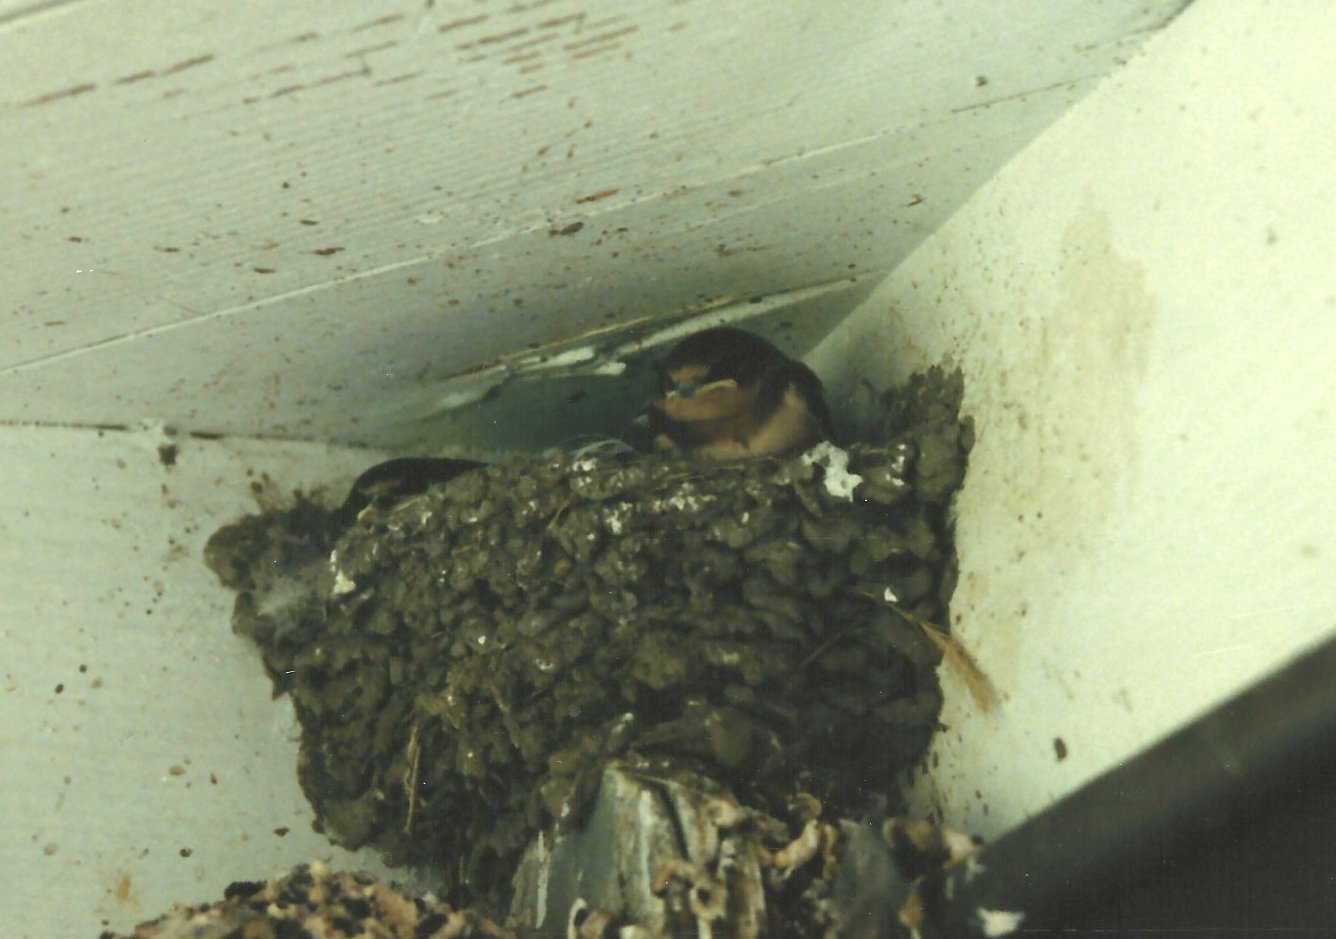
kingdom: Animalia
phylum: Chordata
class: Aves
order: Passeriformes
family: Hirundinidae
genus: Hirundo
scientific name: Hirundo rustica
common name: Barn swallow
